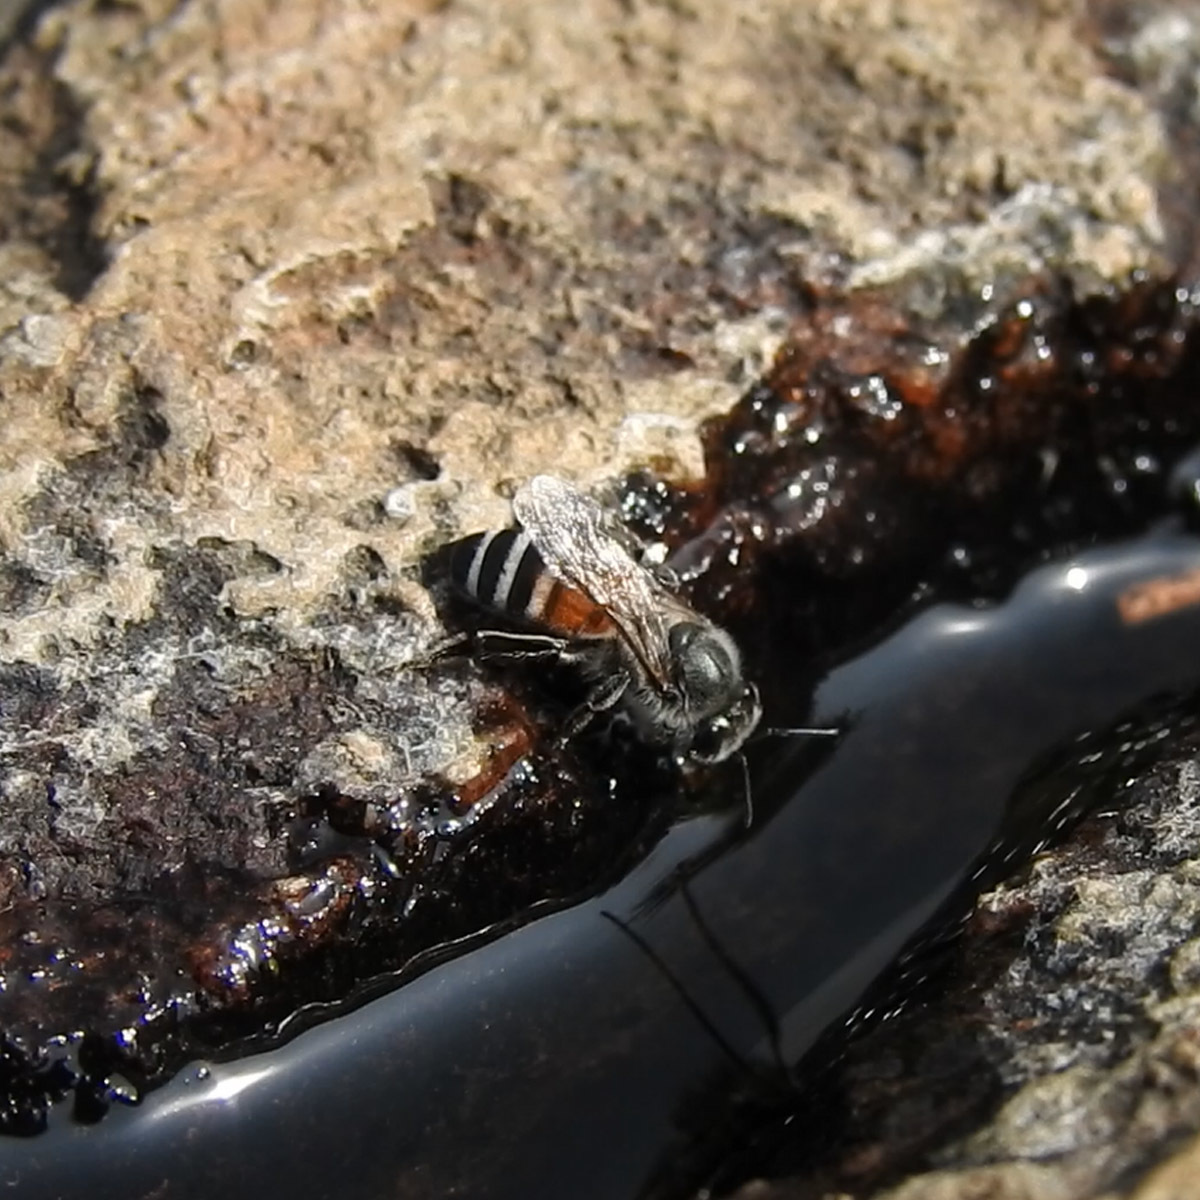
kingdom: Animalia
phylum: Arthropoda
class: Insecta
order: Hymenoptera
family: Apidae
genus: Apis
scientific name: Apis florea
